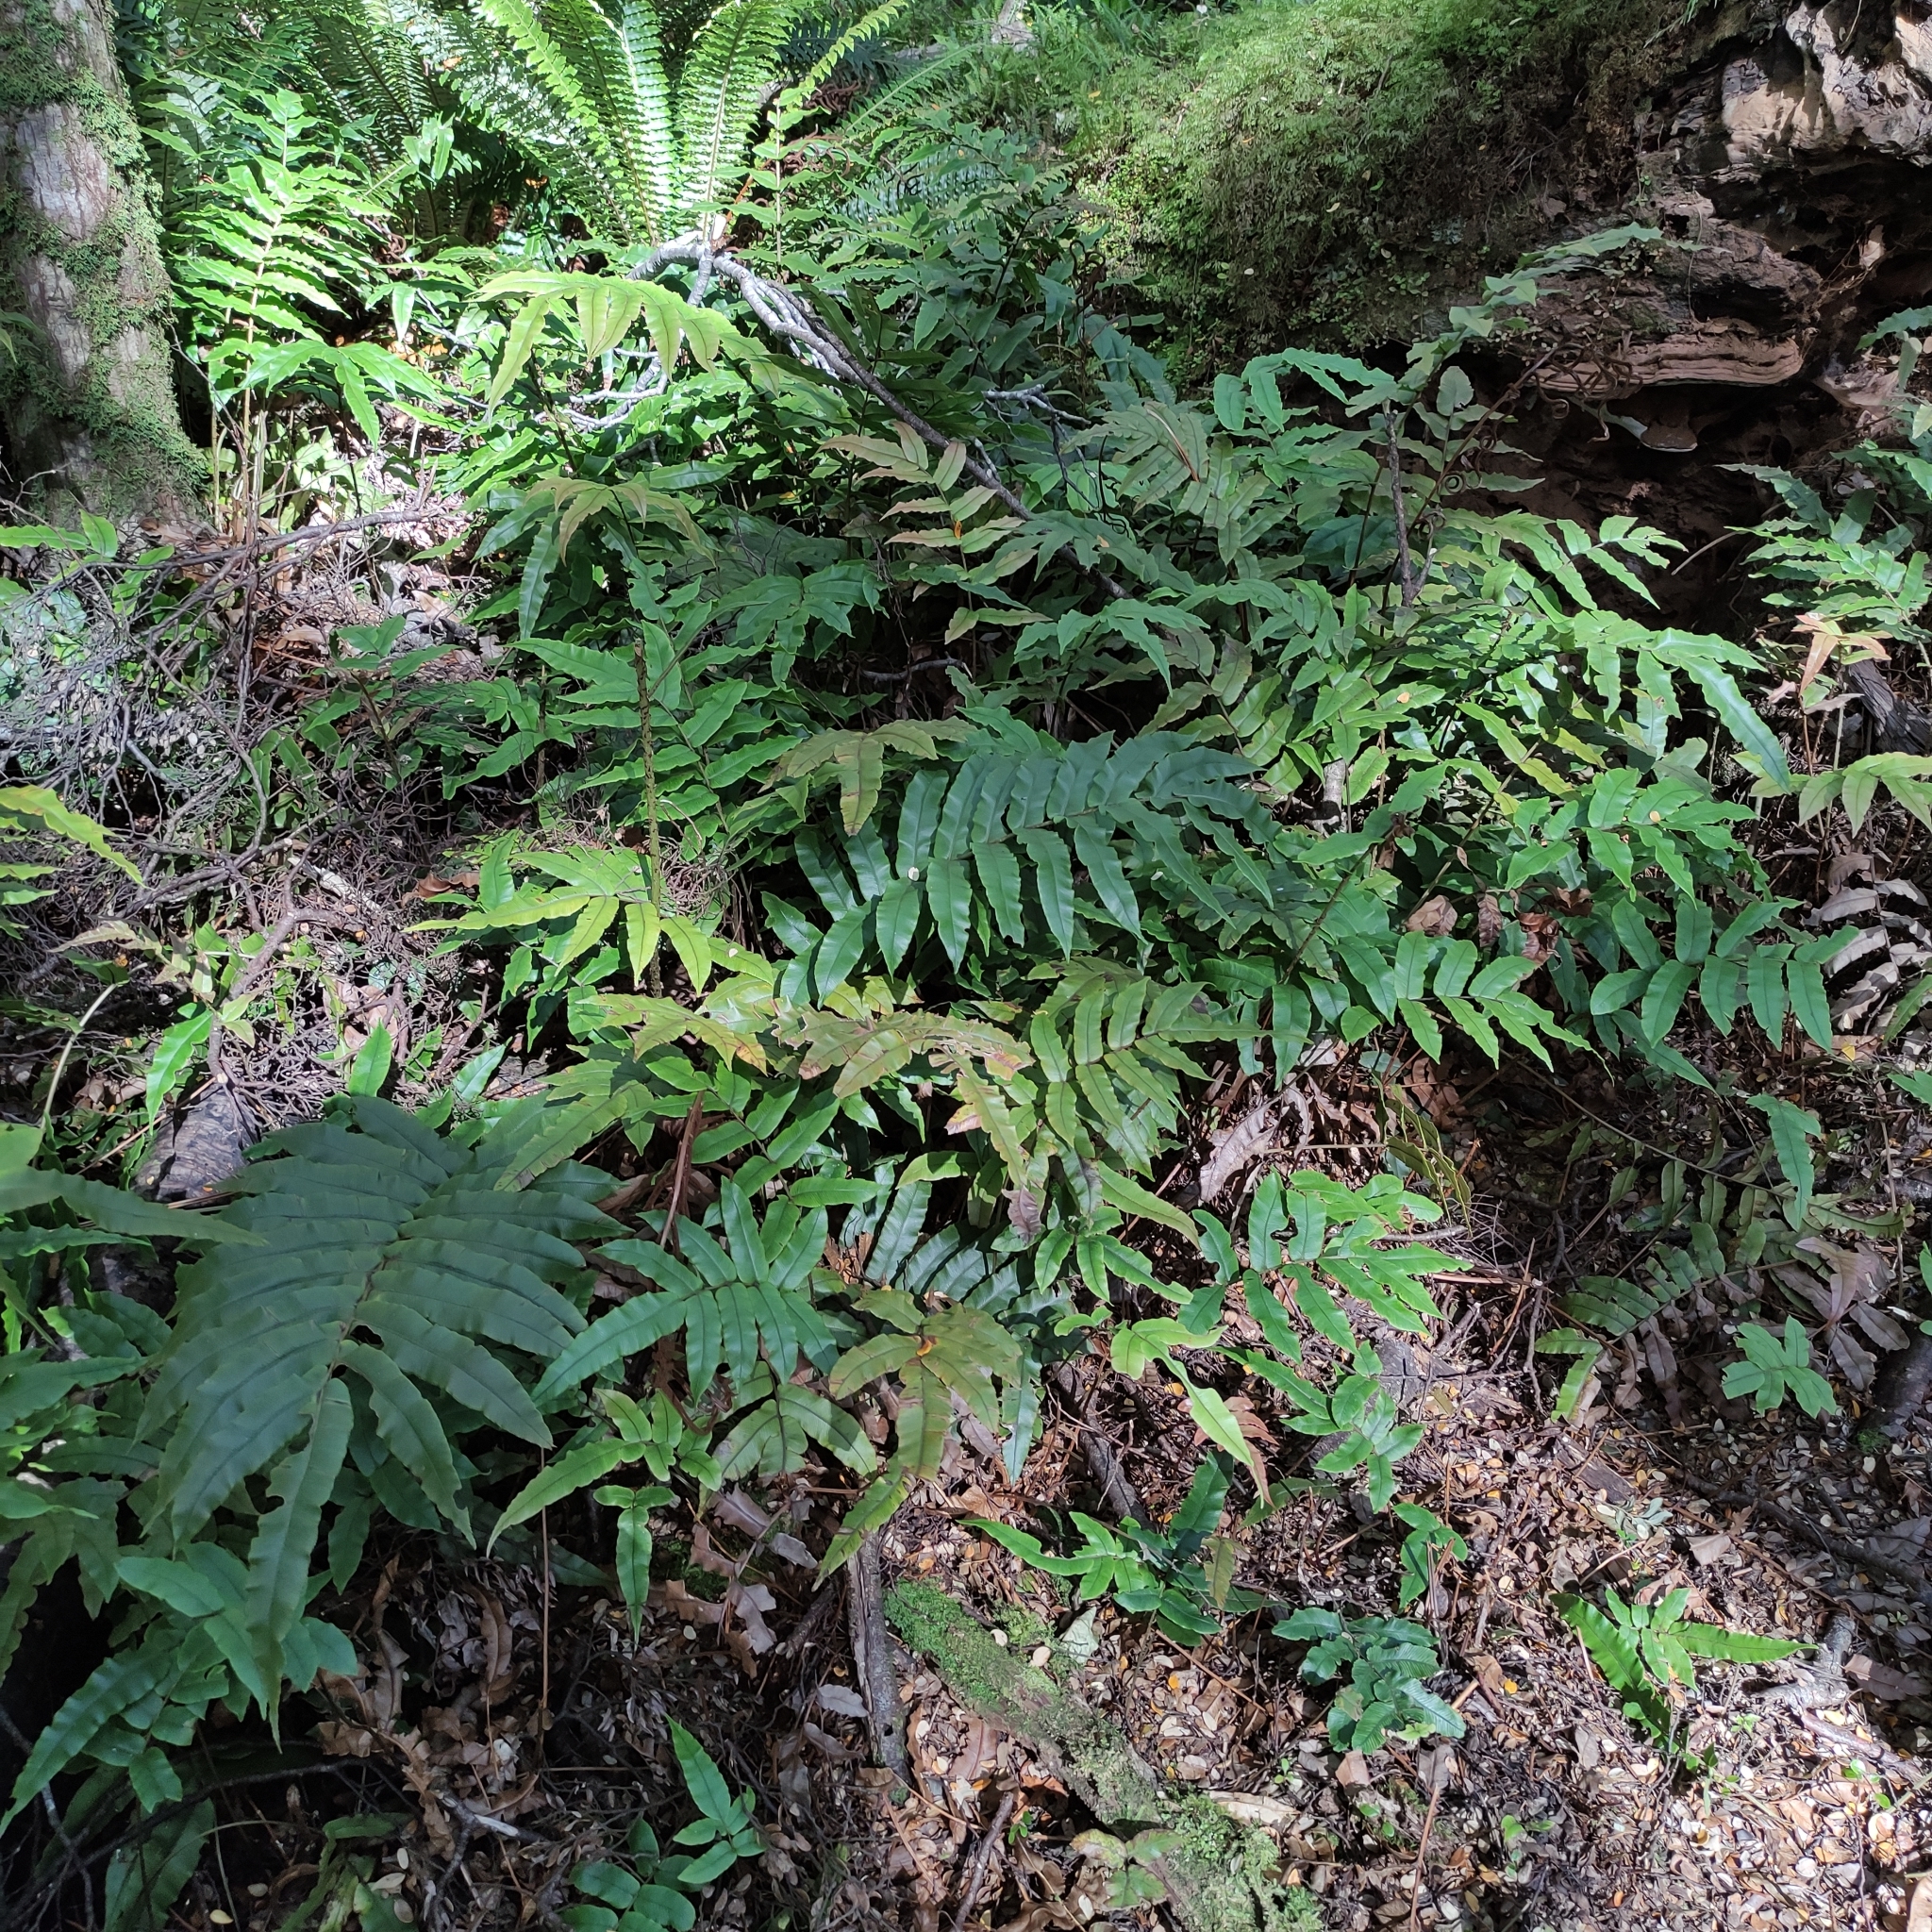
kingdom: Plantae
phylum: Tracheophyta
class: Polypodiopsida
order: Polypodiales
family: Blechnaceae
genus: Parablechnum
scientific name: Parablechnum procerum
